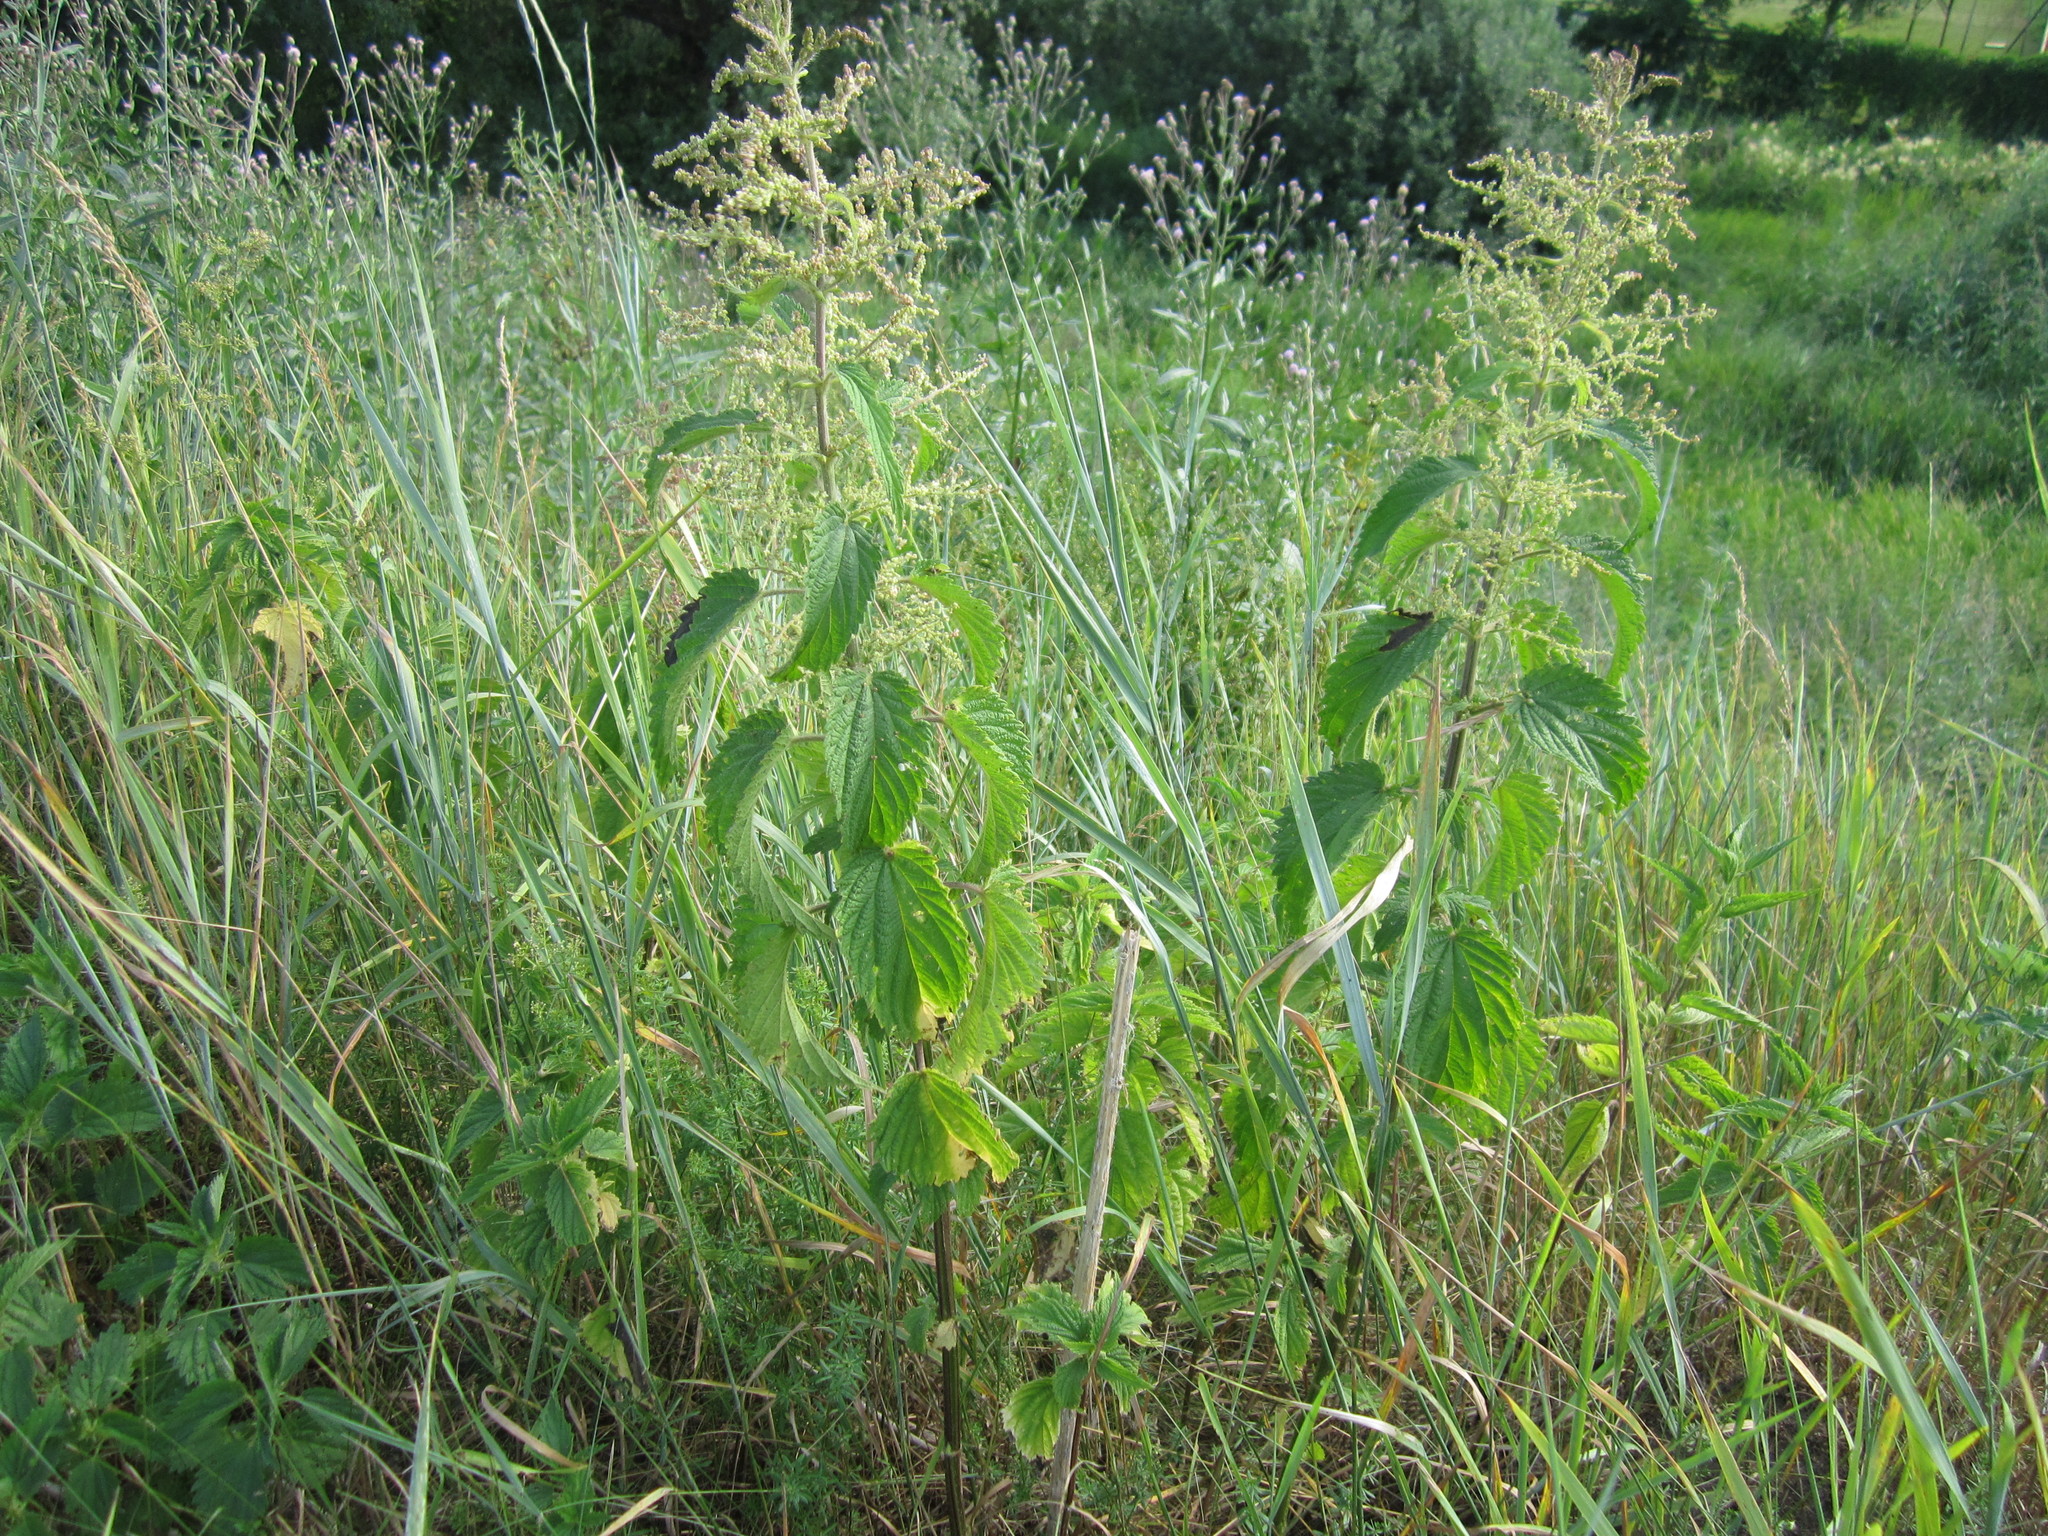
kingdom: Plantae
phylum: Tracheophyta
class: Magnoliopsida
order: Rosales
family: Urticaceae
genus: Urtica
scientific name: Urtica dioica
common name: Common nettle
